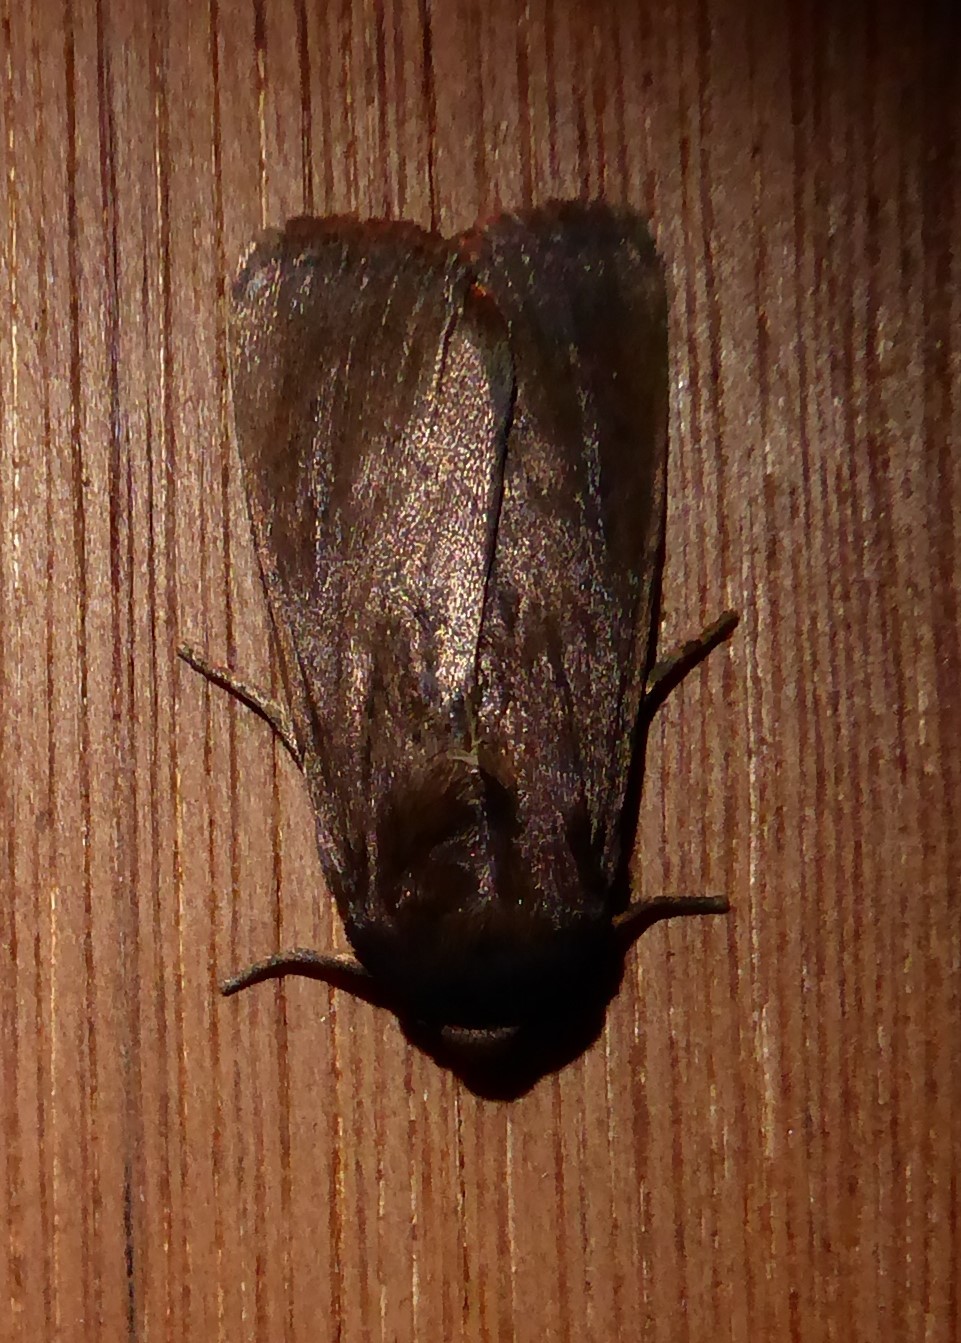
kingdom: Animalia
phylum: Arthropoda
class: Insecta
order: Lepidoptera
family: Noctuidae
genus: Bityla
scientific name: Bityla defigurata
